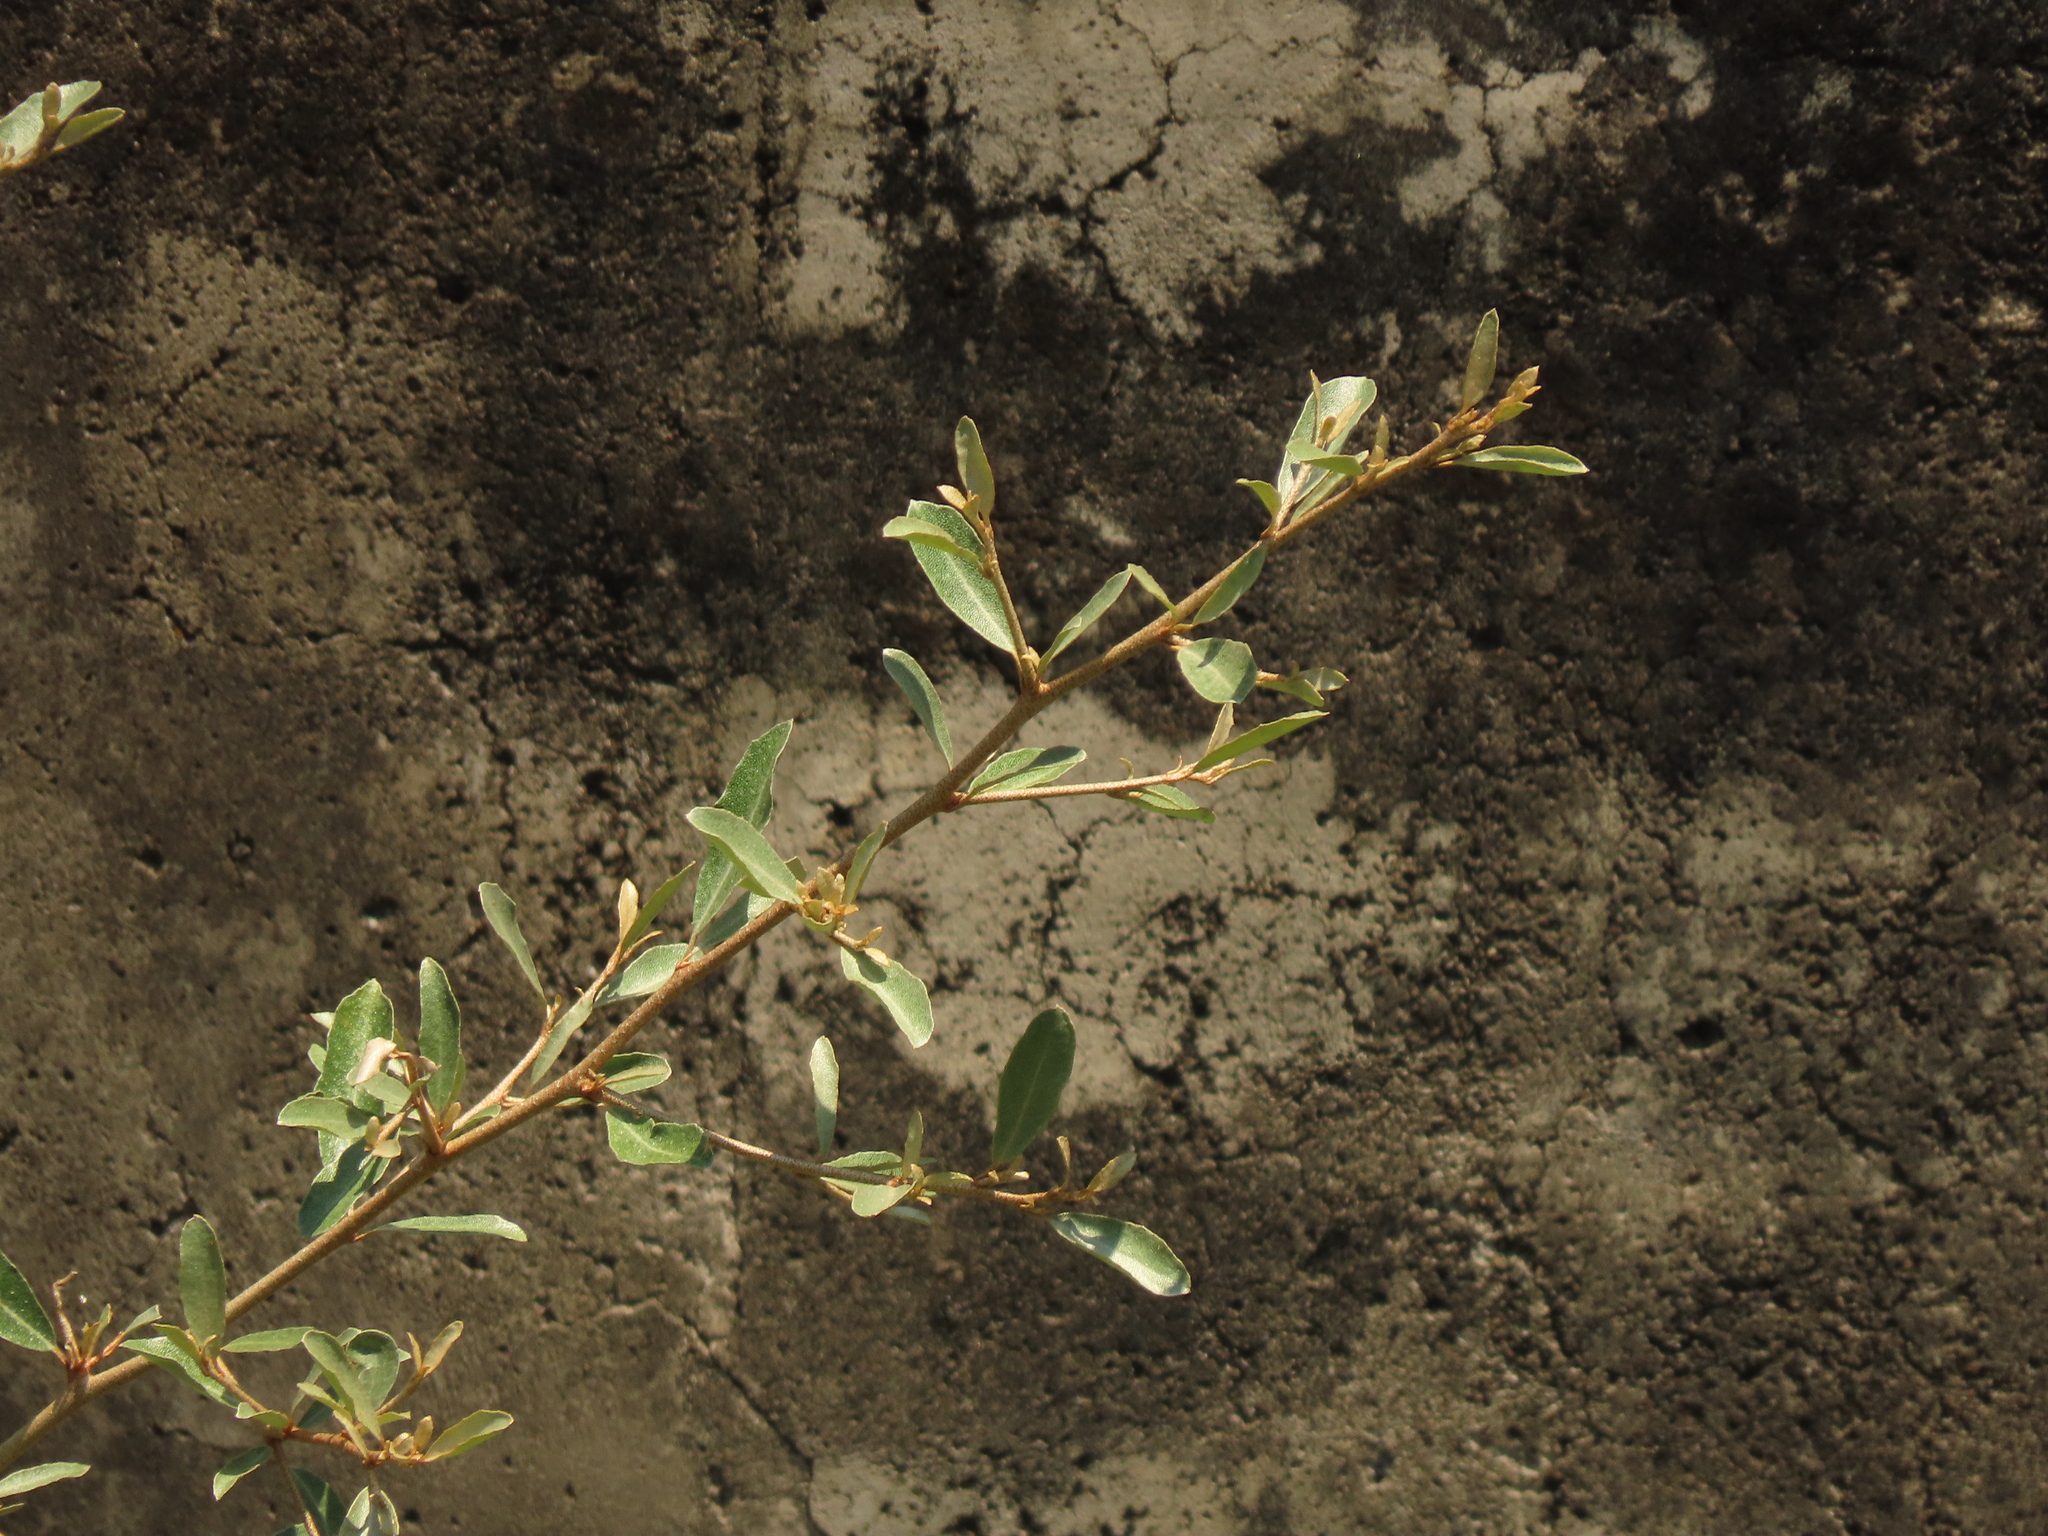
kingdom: Plantae
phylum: Tracheophyta
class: Magnoliopsida
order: Rosales
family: Elaeagnaceae
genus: Elaeagnus
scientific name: Elaeagnus oldhamii
